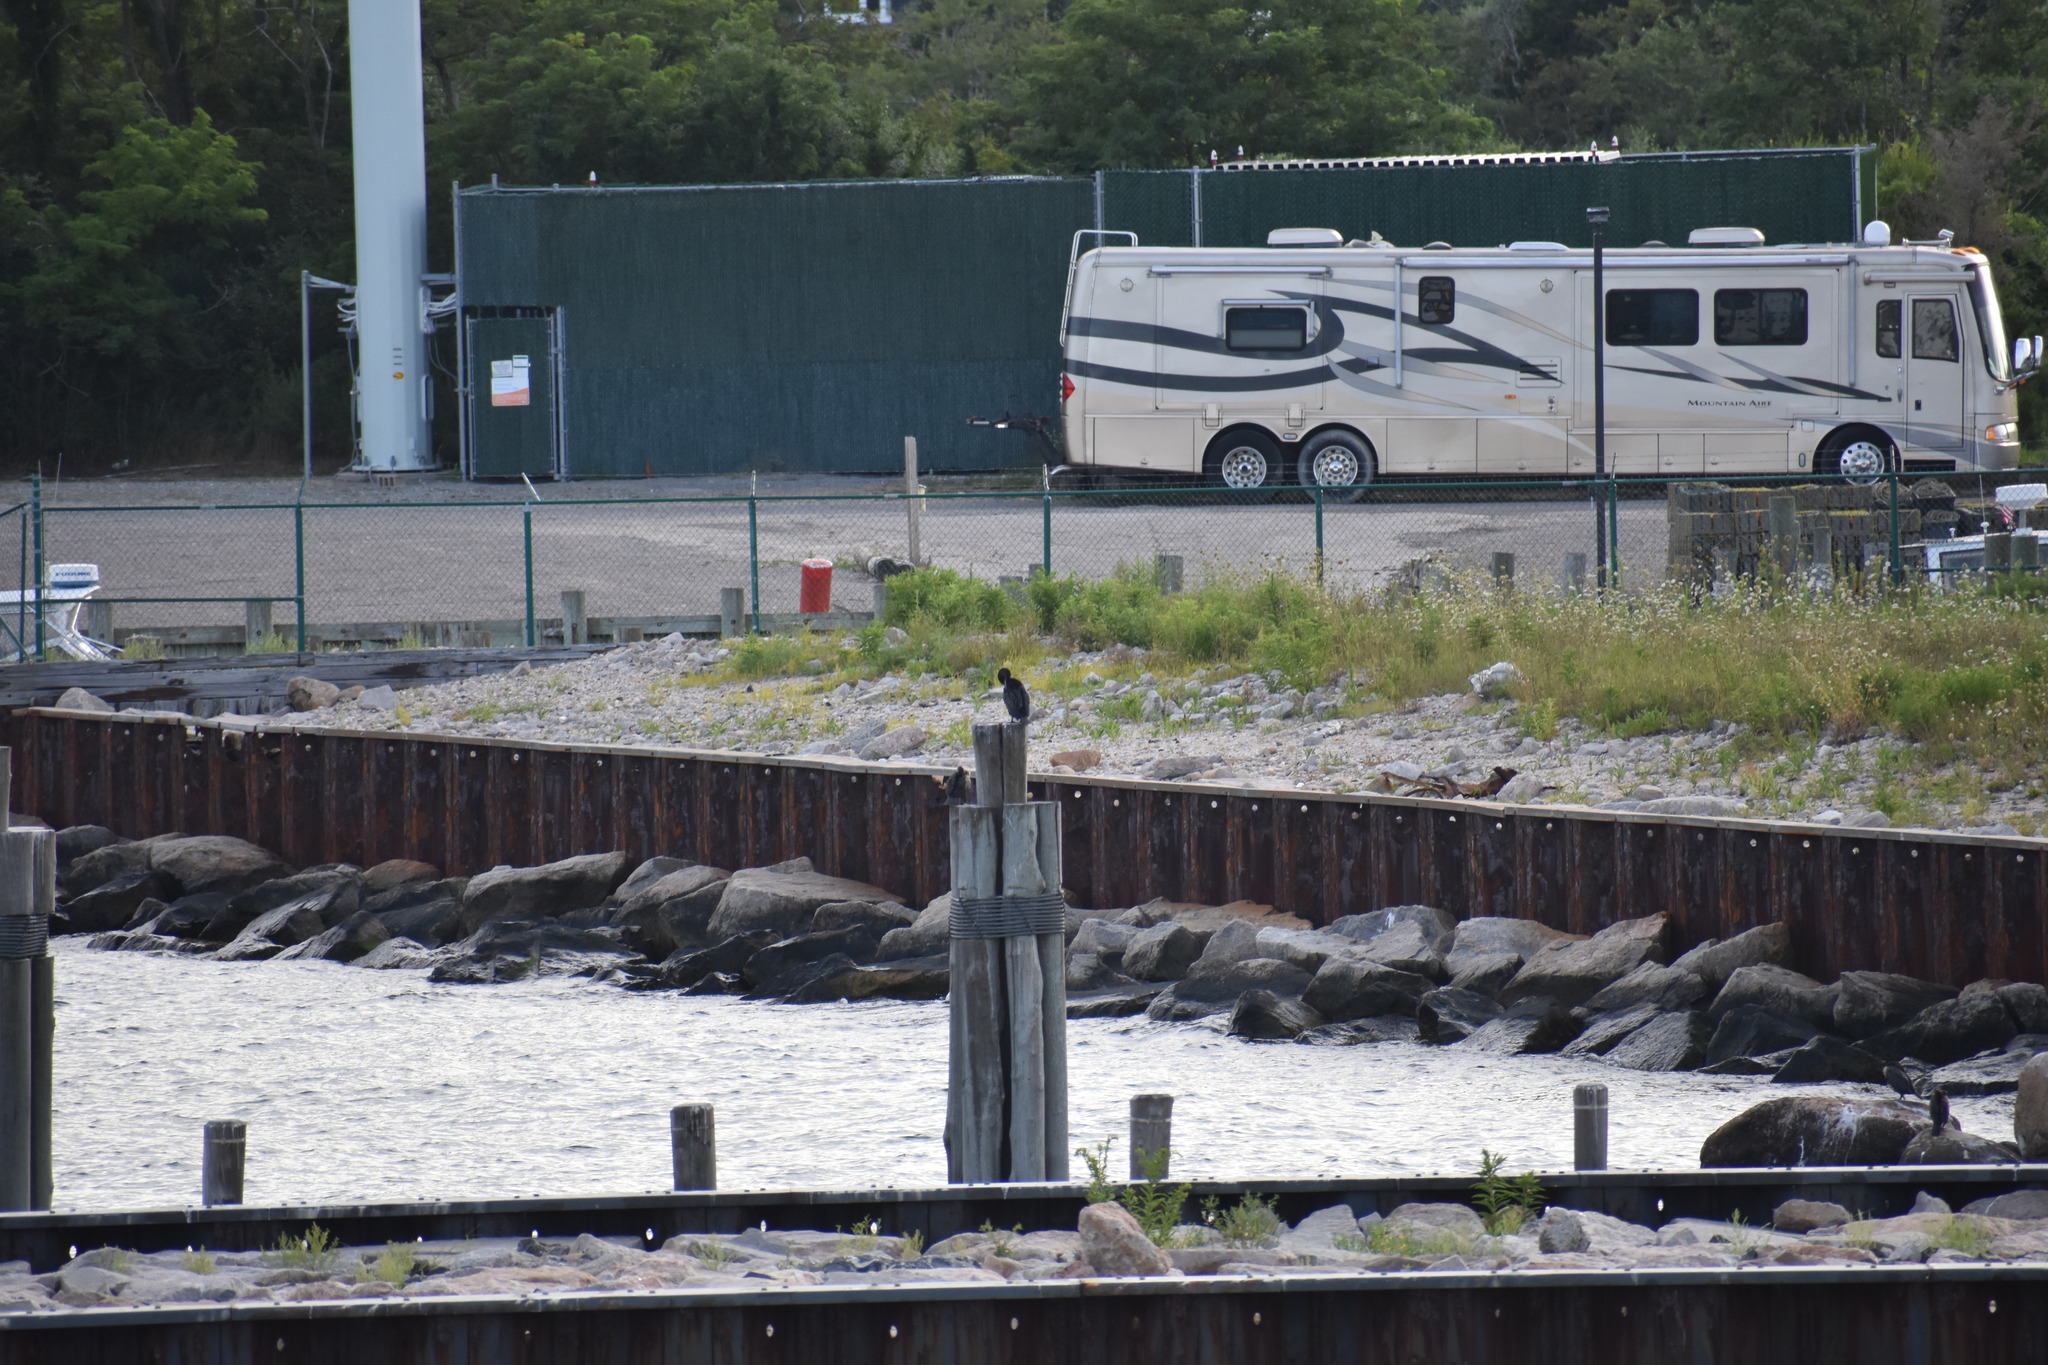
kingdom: Animalia
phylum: Chordata
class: Aves
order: Suliformes
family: Phalacrocoracidae
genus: Phalacrocorax
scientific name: Phalacrocorax auritus
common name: Double-crested cormorant
